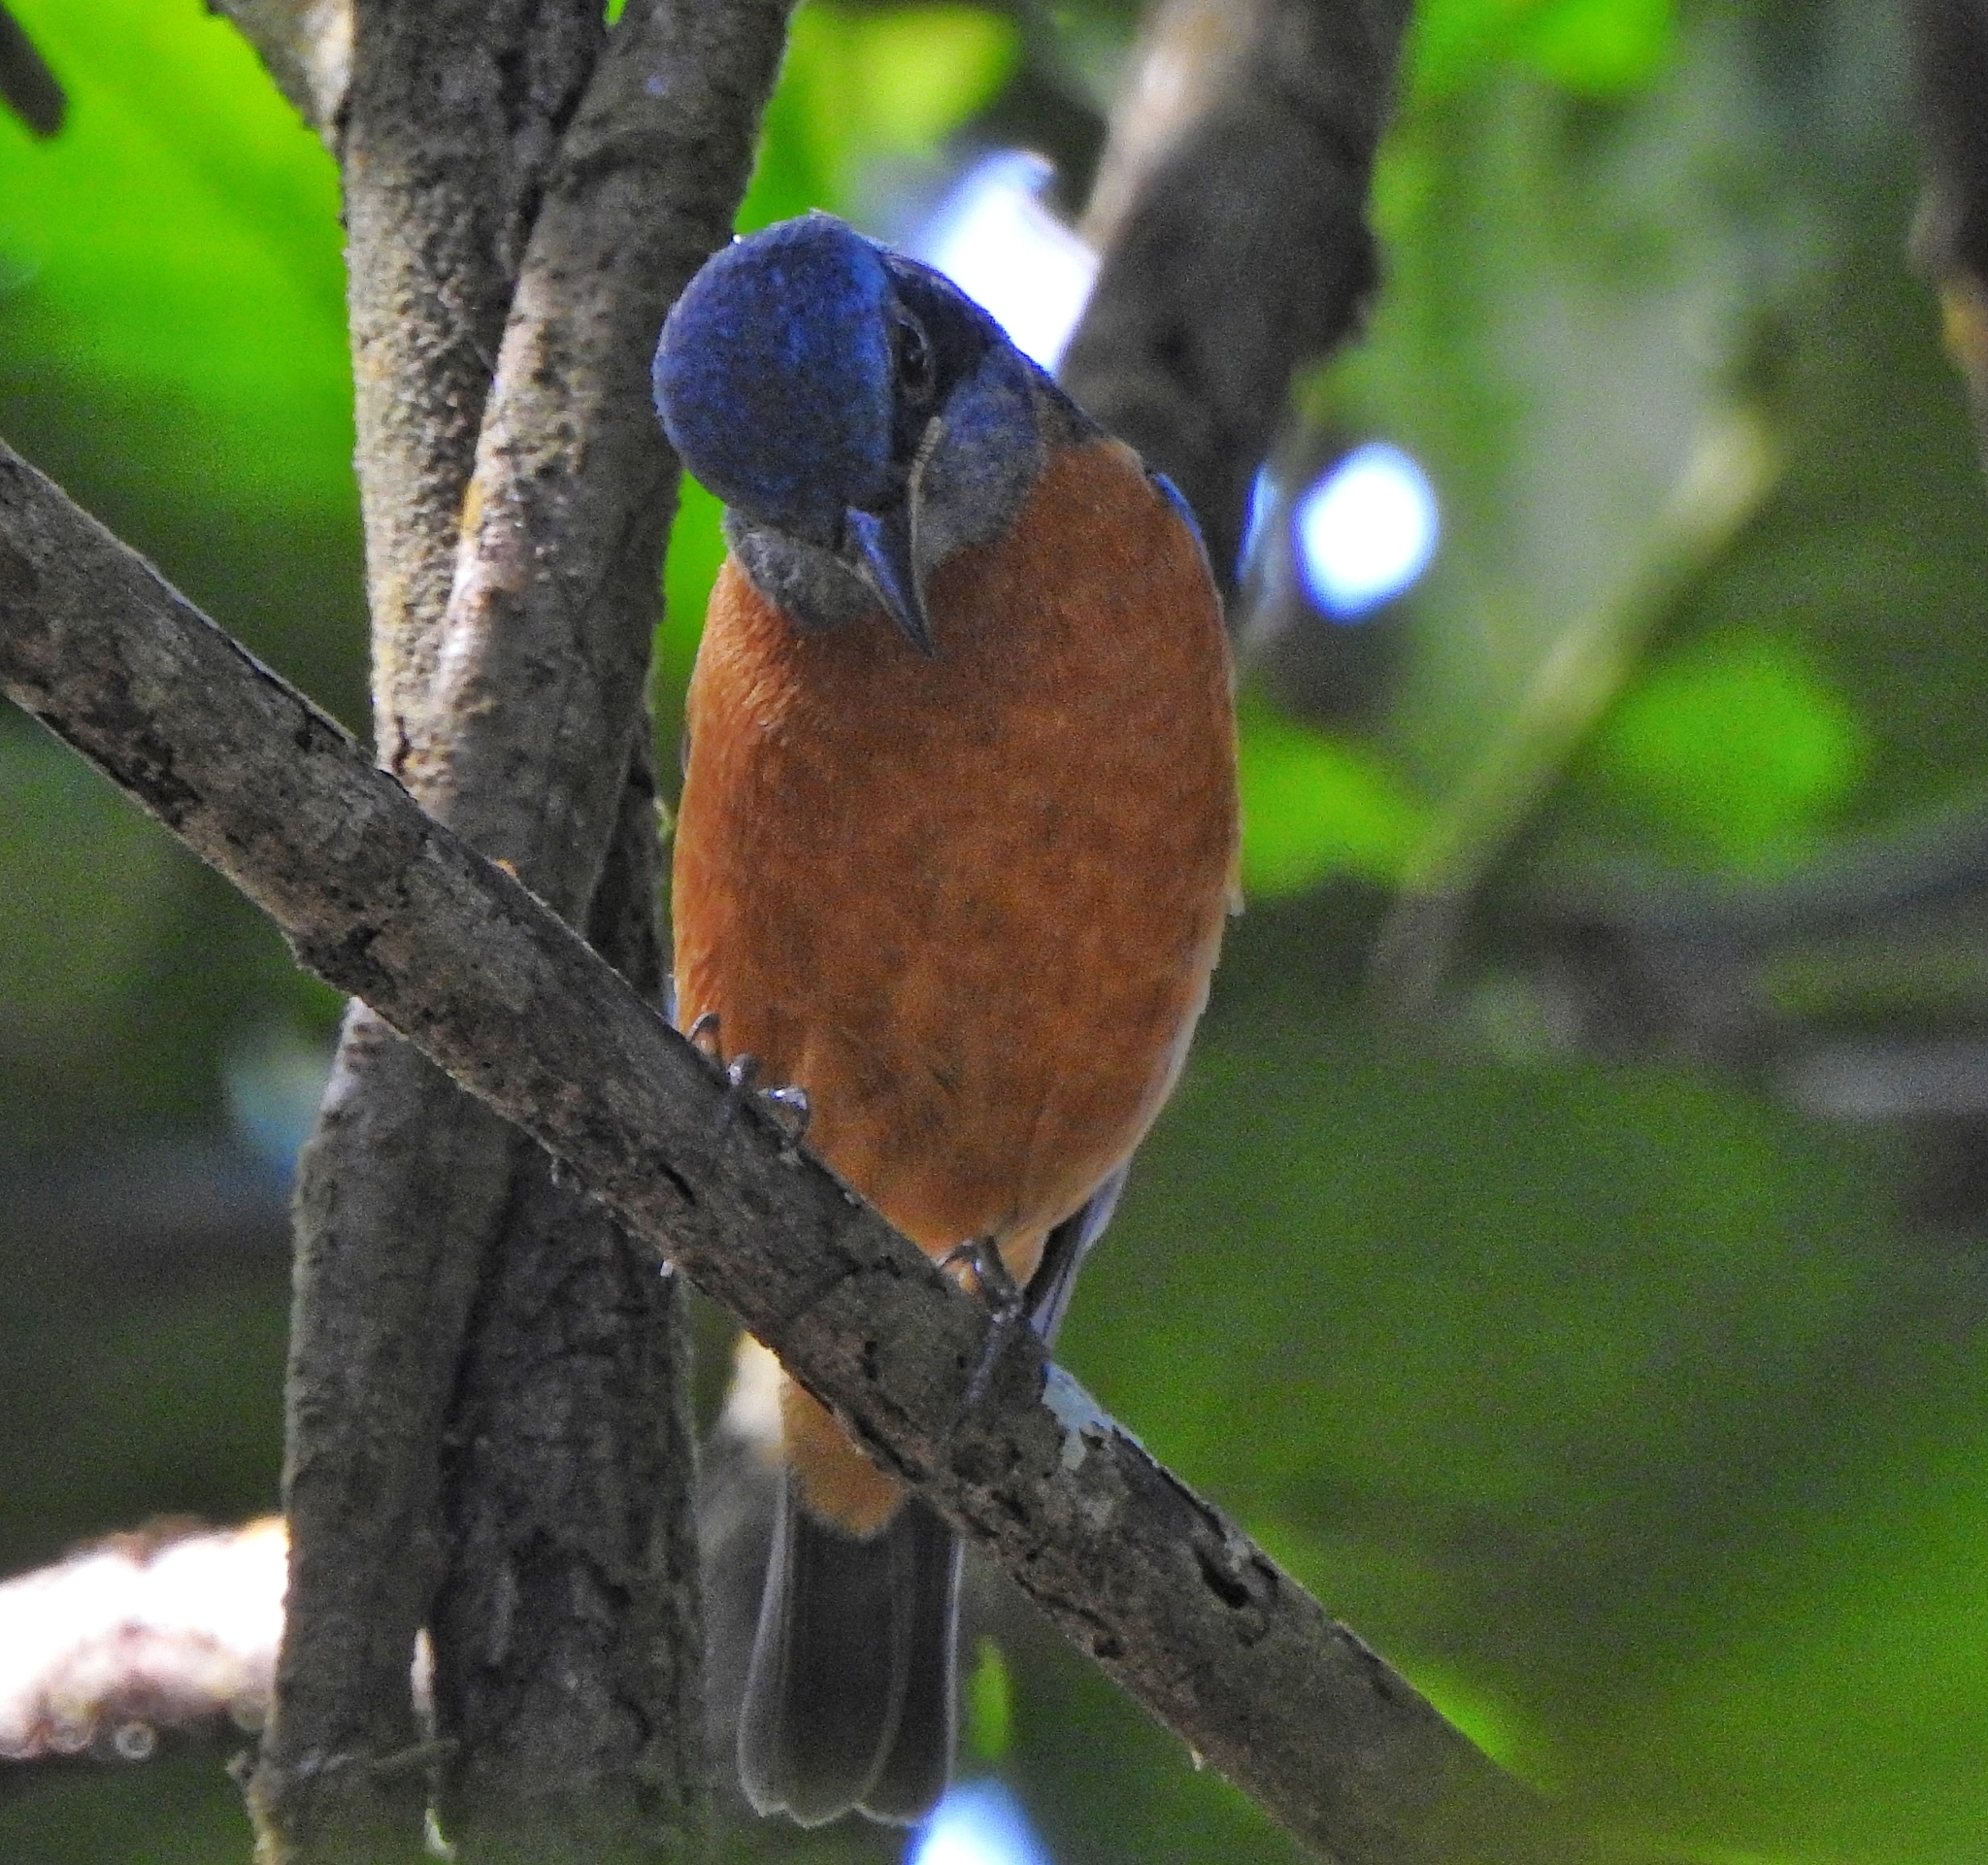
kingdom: Animalia
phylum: Chordata
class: Aves
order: Passeriformes
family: Muscicapidae
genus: Monticola
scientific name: Monticola cinclorhynchus
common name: Blue-capped rock thrush
